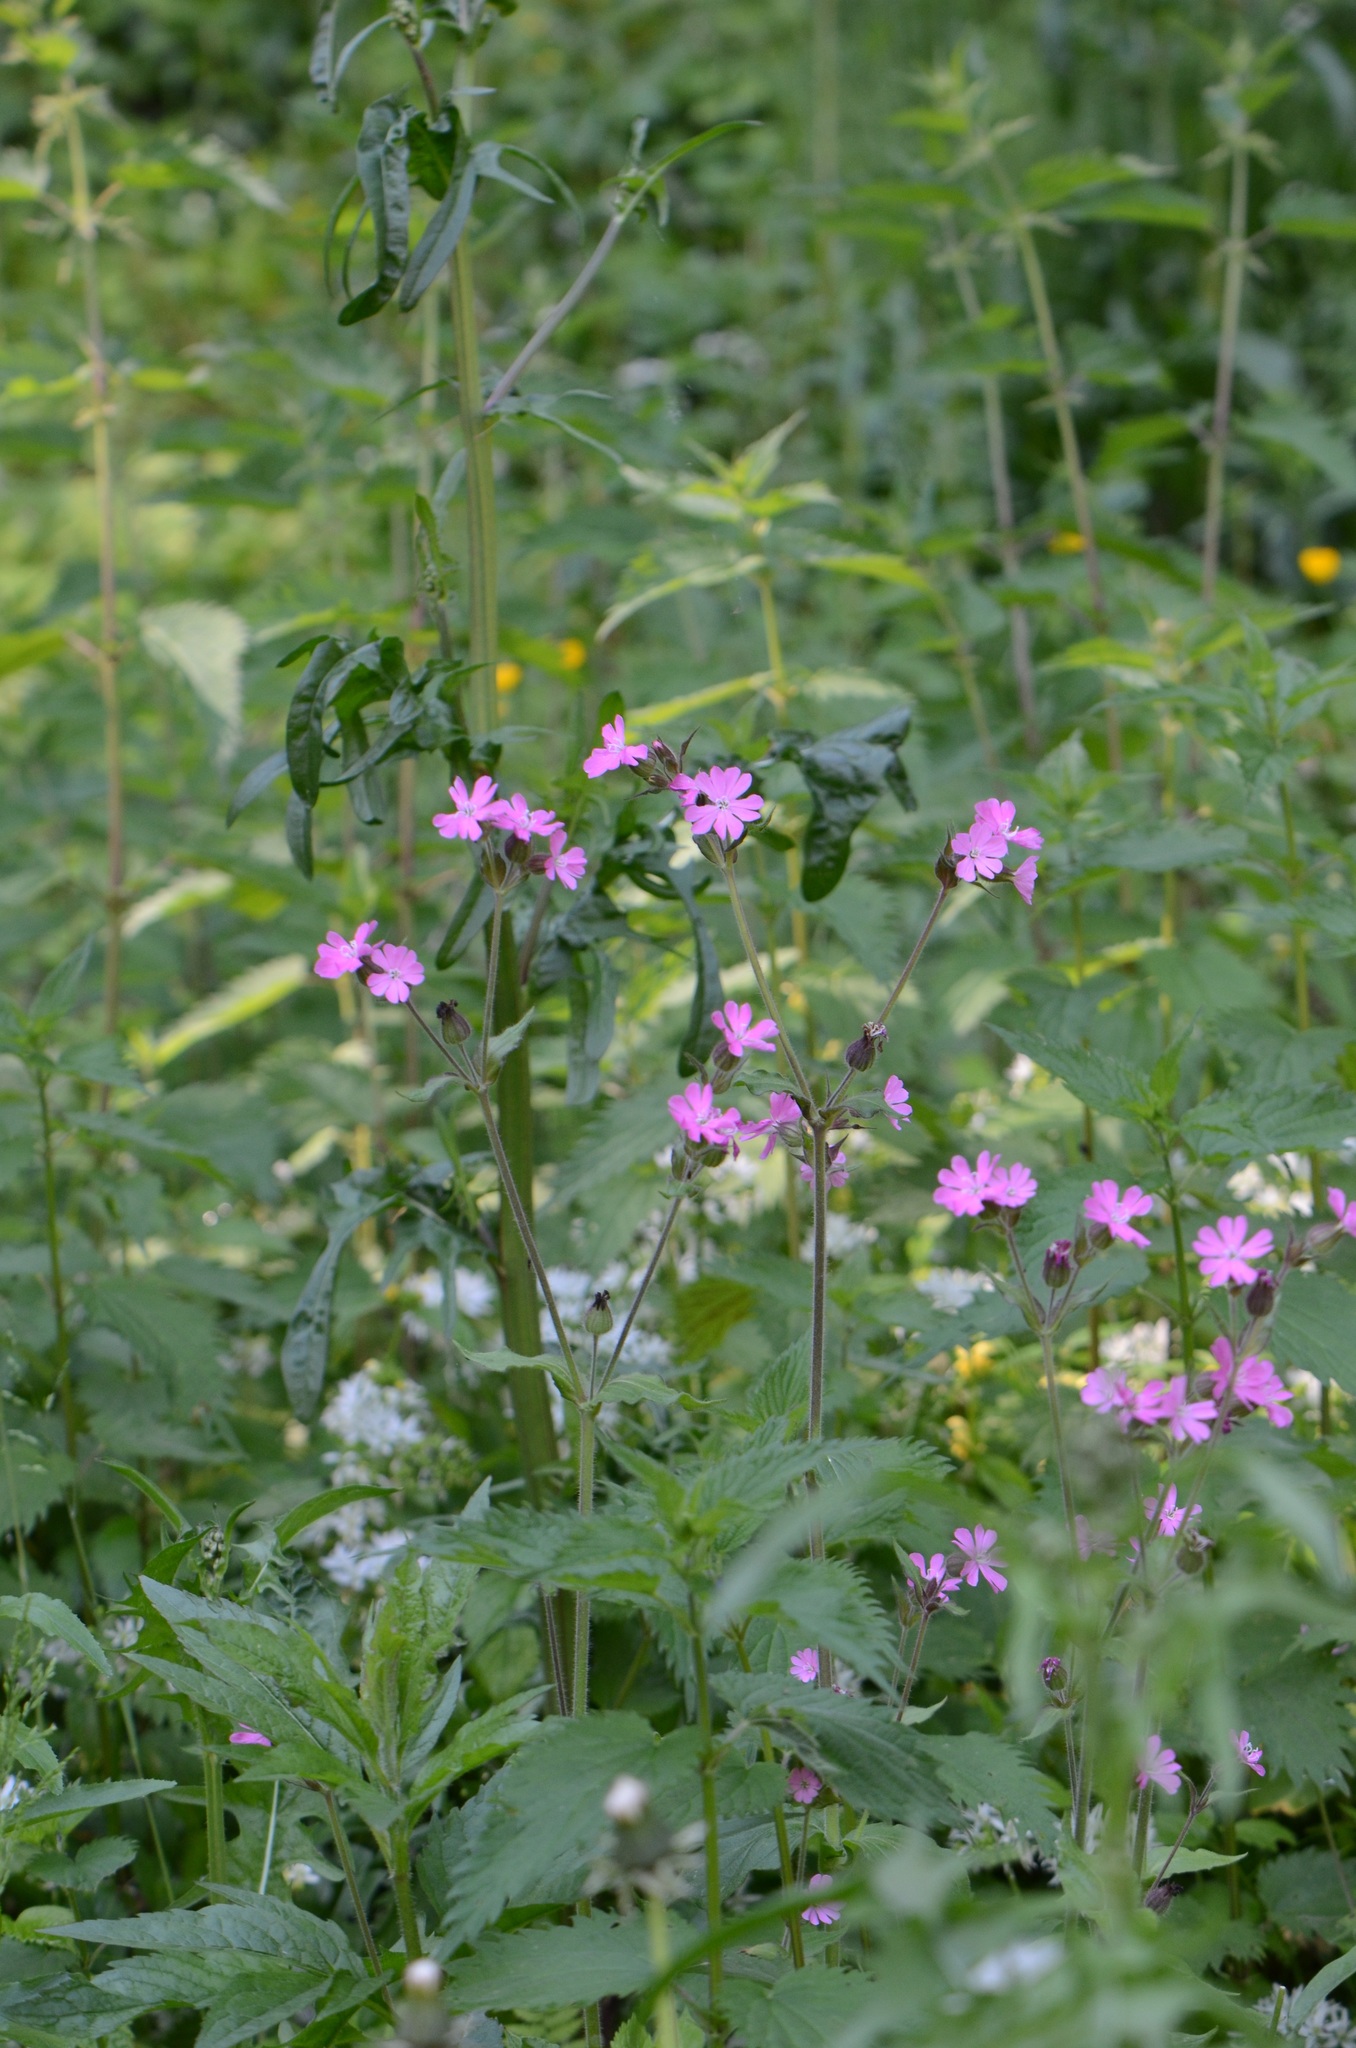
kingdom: Plantae
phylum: Tracheophyta
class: Magnoliopsida
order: Caryophyllales
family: Caryophyllaceae
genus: Silene
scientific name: Silene dioica
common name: Red campion
